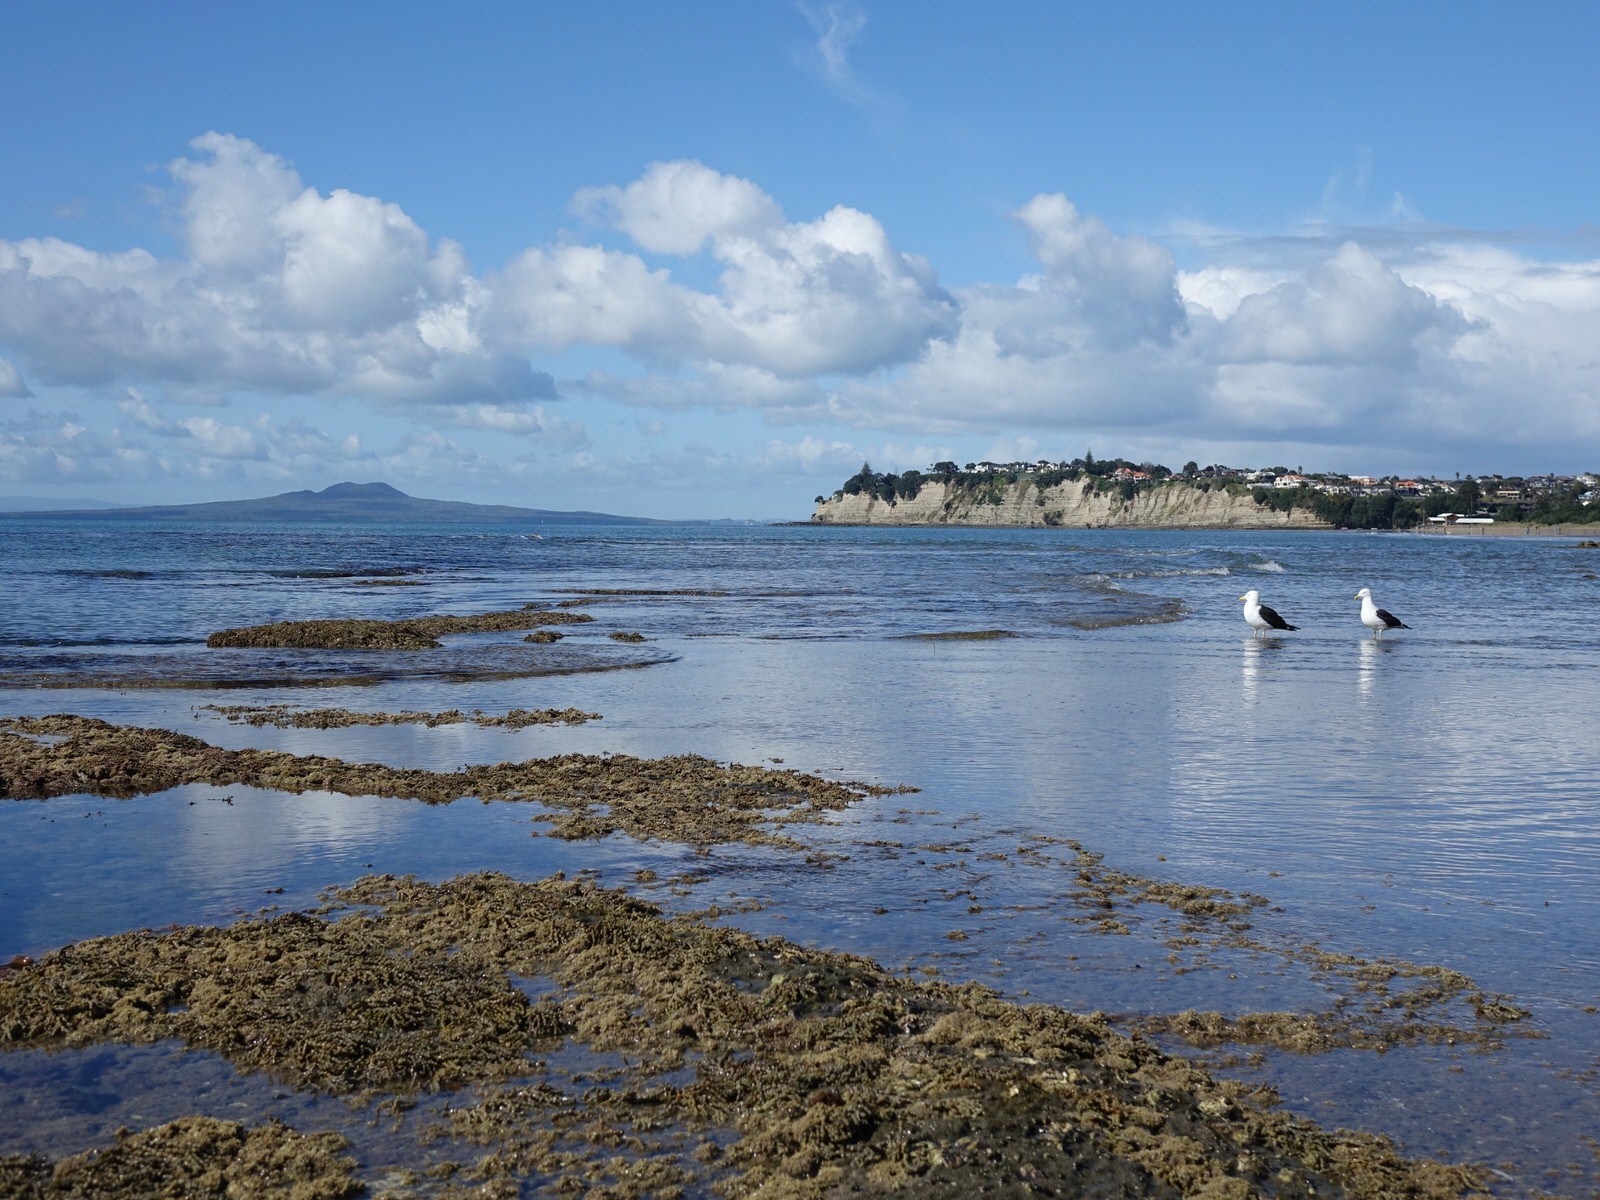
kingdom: Animalia
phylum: Chordata
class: Aves
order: Charadriiformes
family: Laridae
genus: Larus
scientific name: Larus dominicanus
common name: Kelp gull
